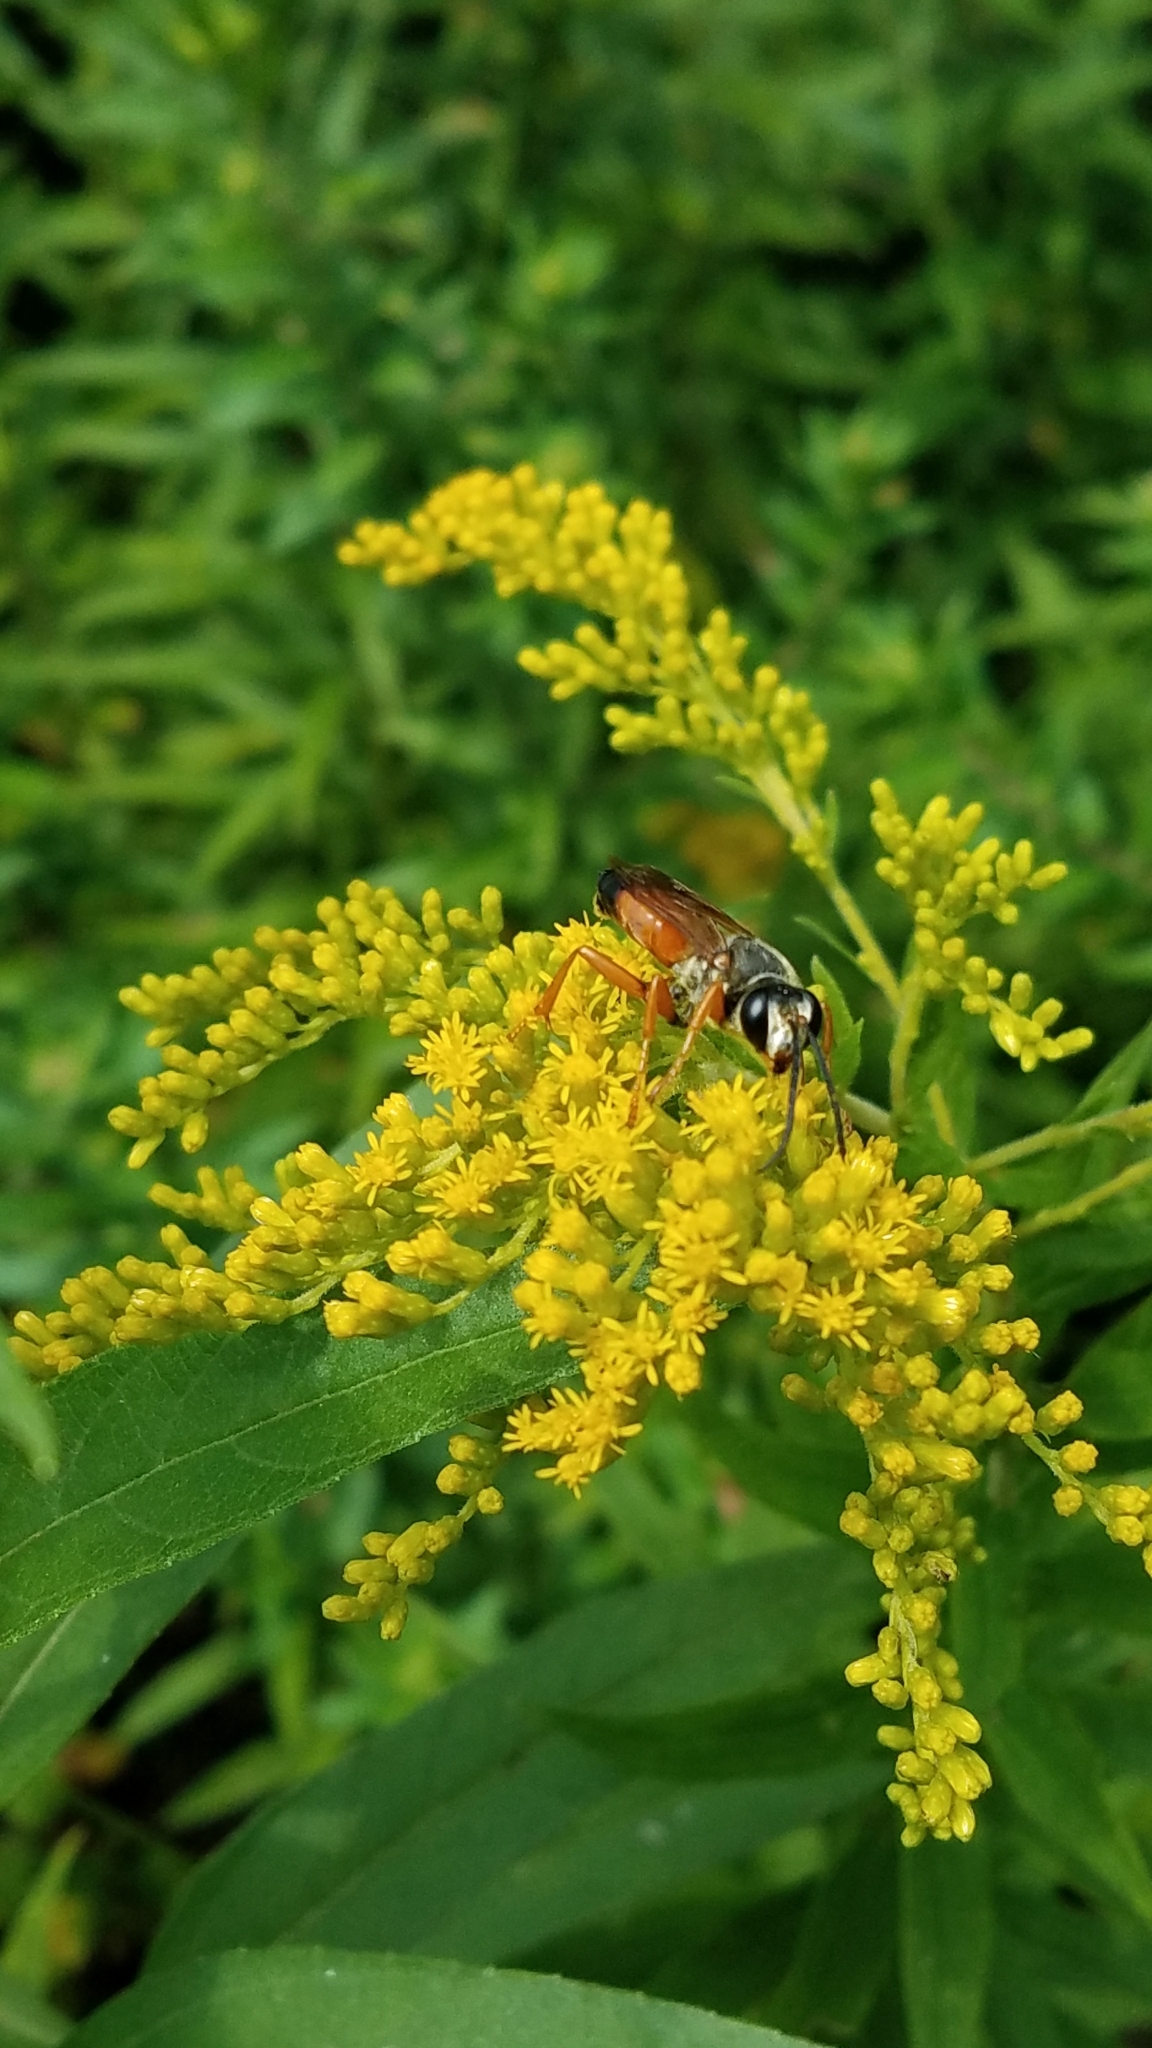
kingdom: Animalia
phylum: Arthropoda
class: Insecta
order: Hymenoptera
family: Sphecidae
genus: Sphex
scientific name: Sphex ichneumoneus
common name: Great golden digger wasp
